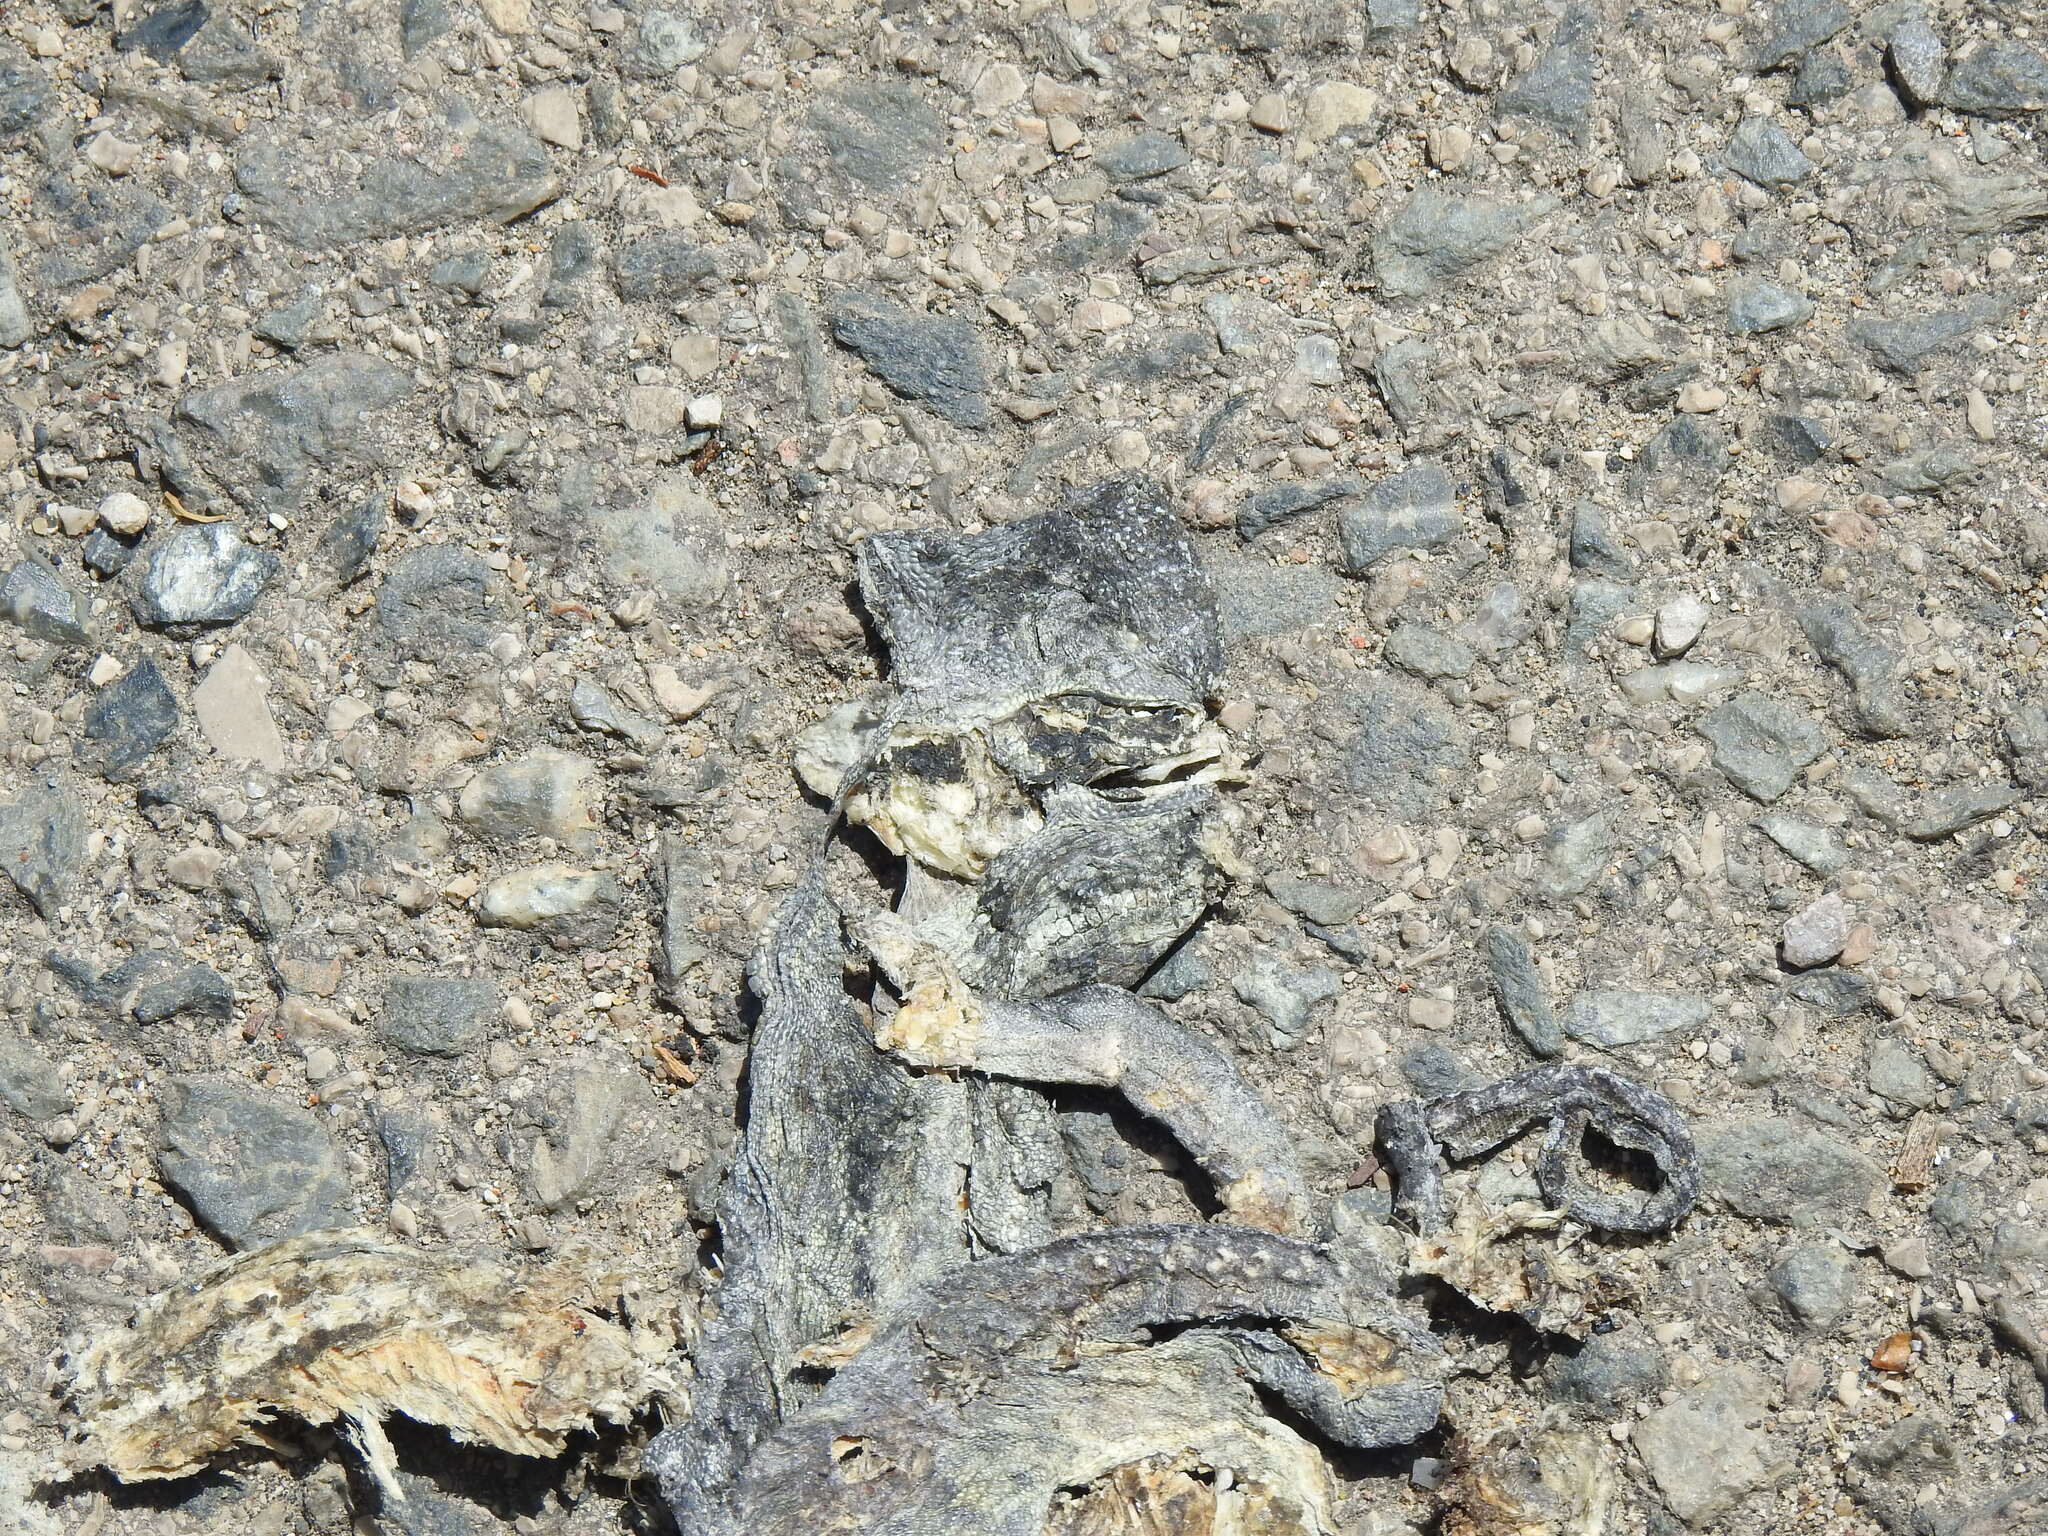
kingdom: Animalia
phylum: Chordata
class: Squamata
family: Chamaeleonidae
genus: Chamaeleo
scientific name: Chamaeleo chamaeleon
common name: Mediterranean chameleon
